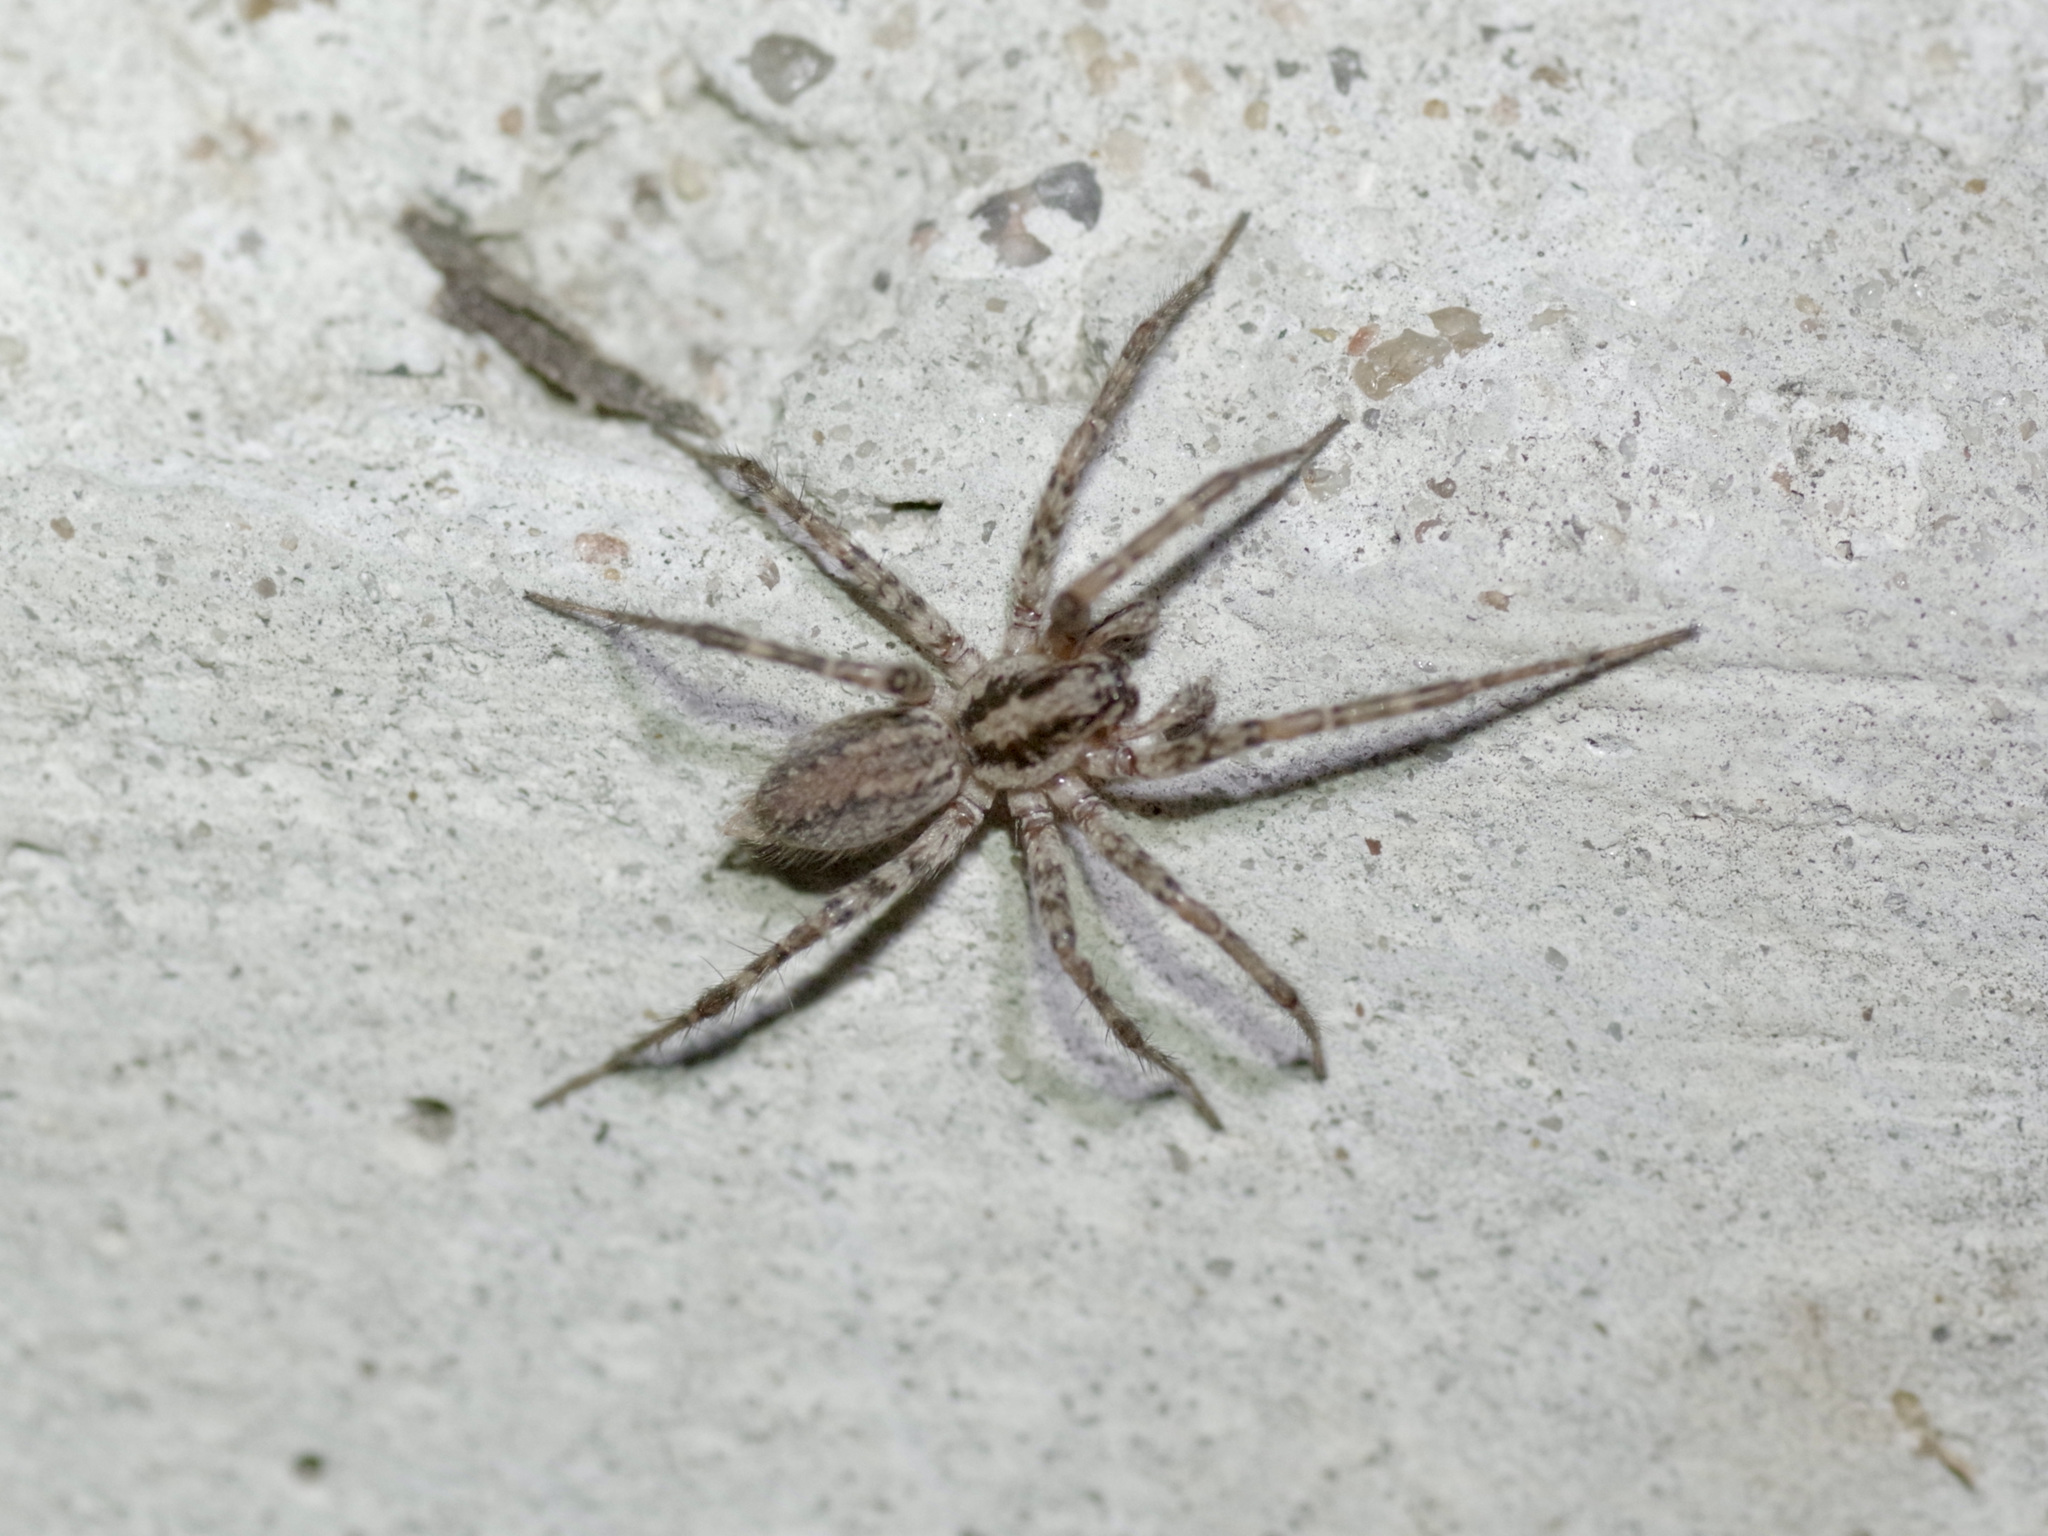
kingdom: Animalia
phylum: Arthropoda
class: Arachnida
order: Araneae
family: Agelenidae
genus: Barronopsis
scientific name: Barronopsis texana
